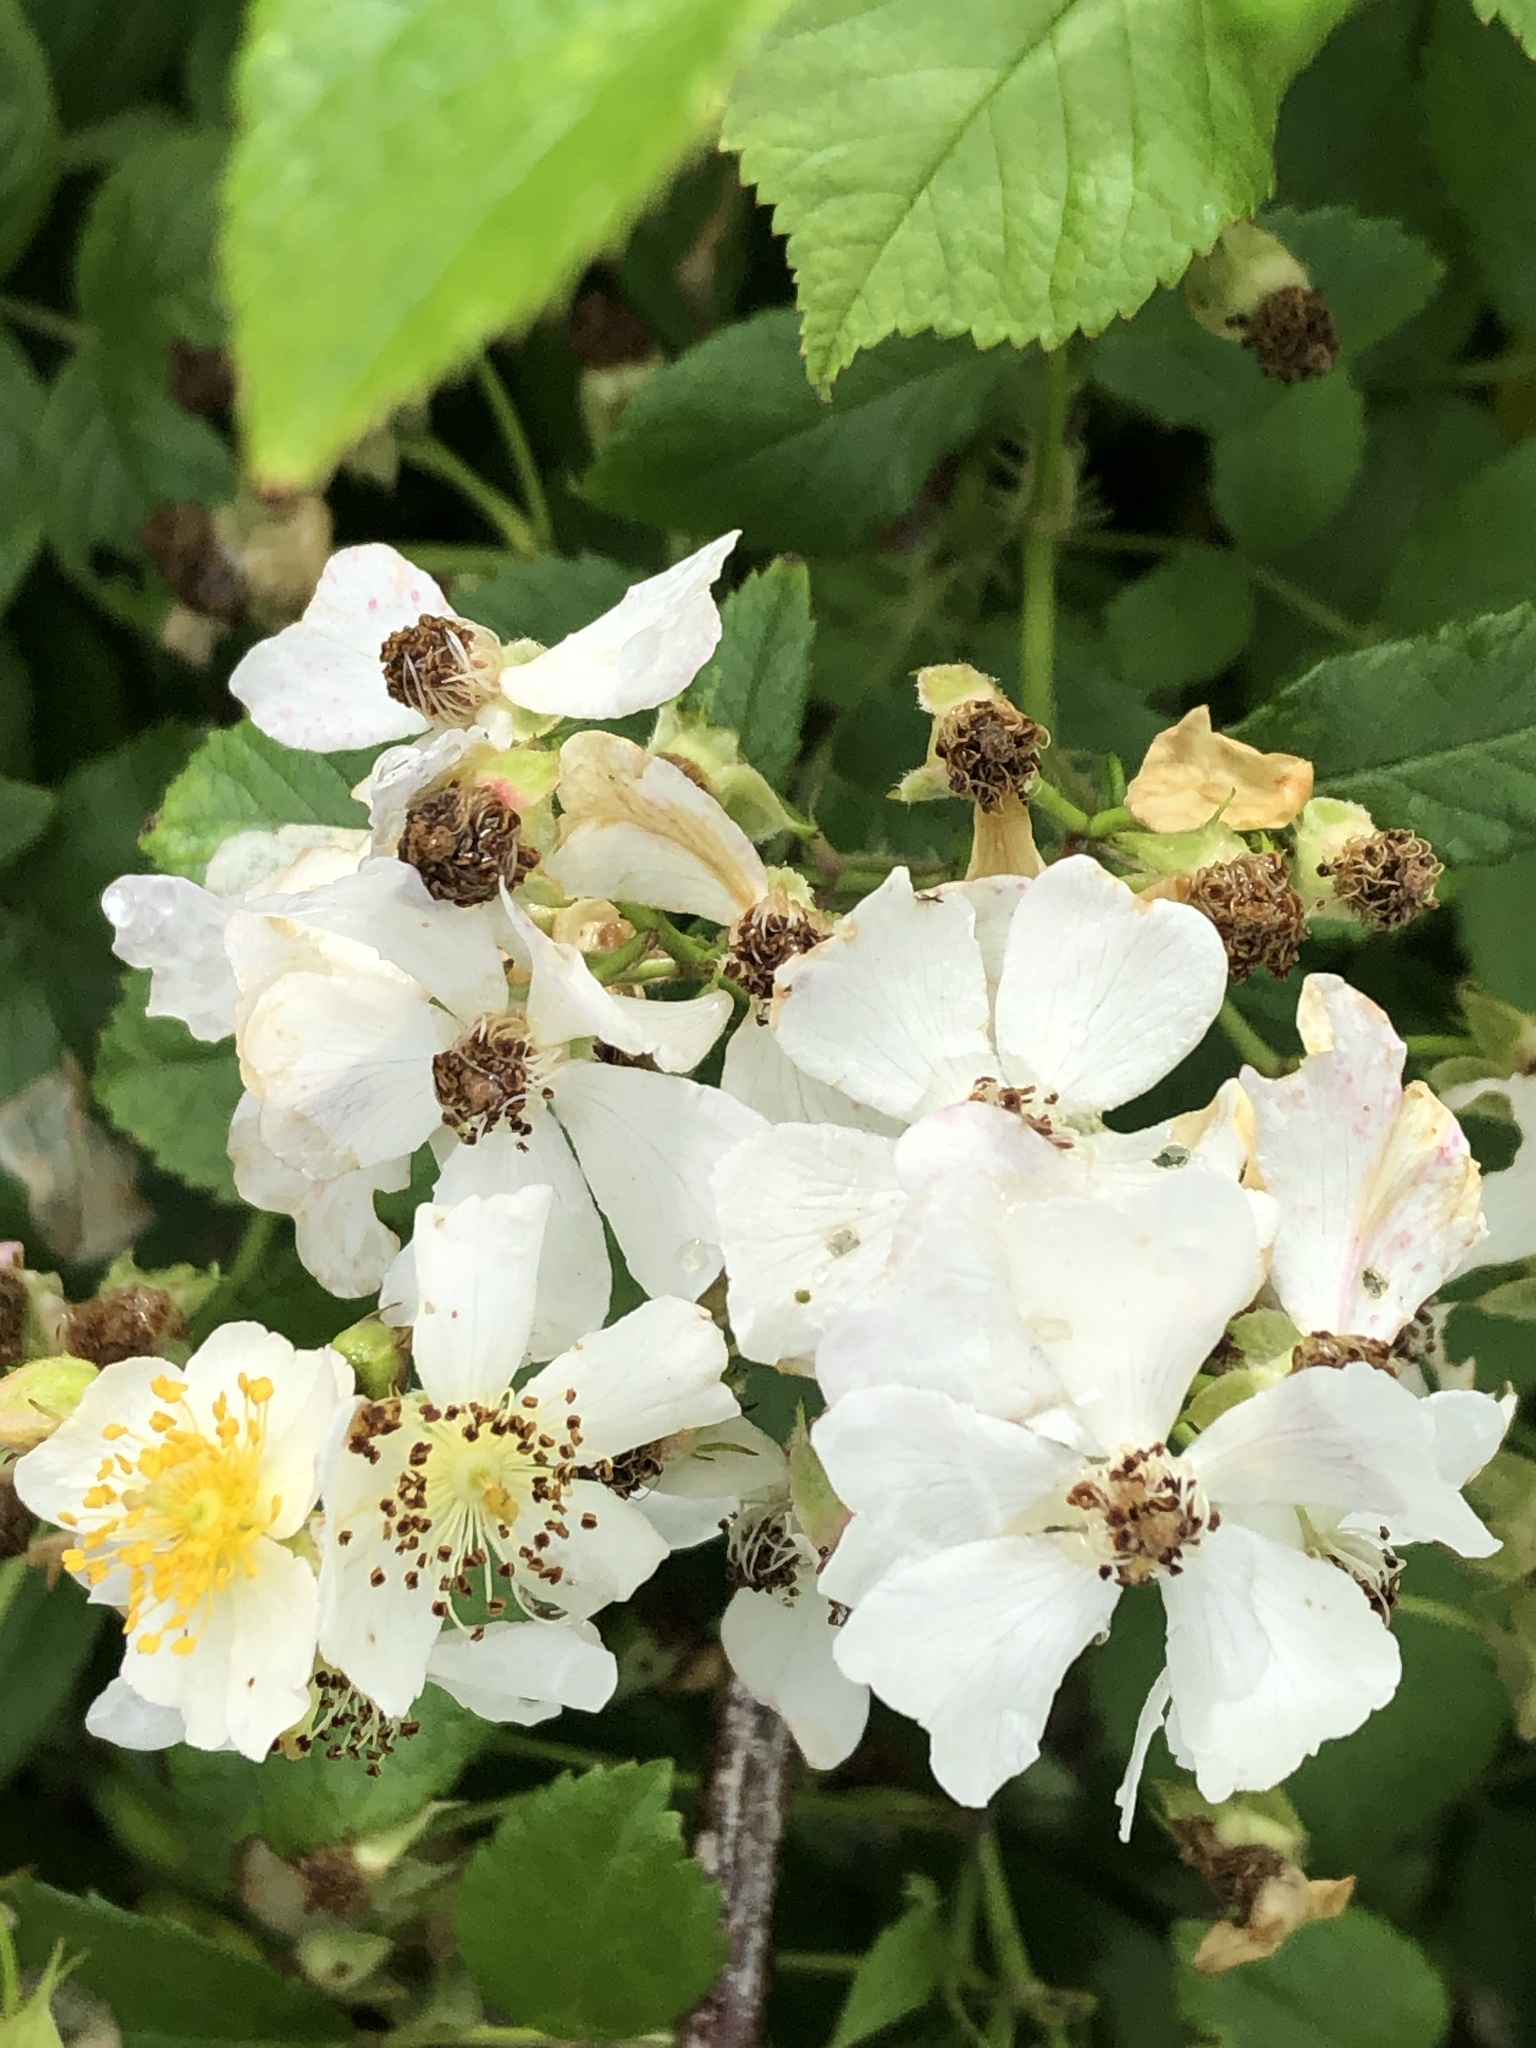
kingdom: Plantae
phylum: Tracheophyta
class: Magnoliopsida
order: Rosales
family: Rosaceae
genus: Rosa
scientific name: Rosa multiflora
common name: Multiflora rose
